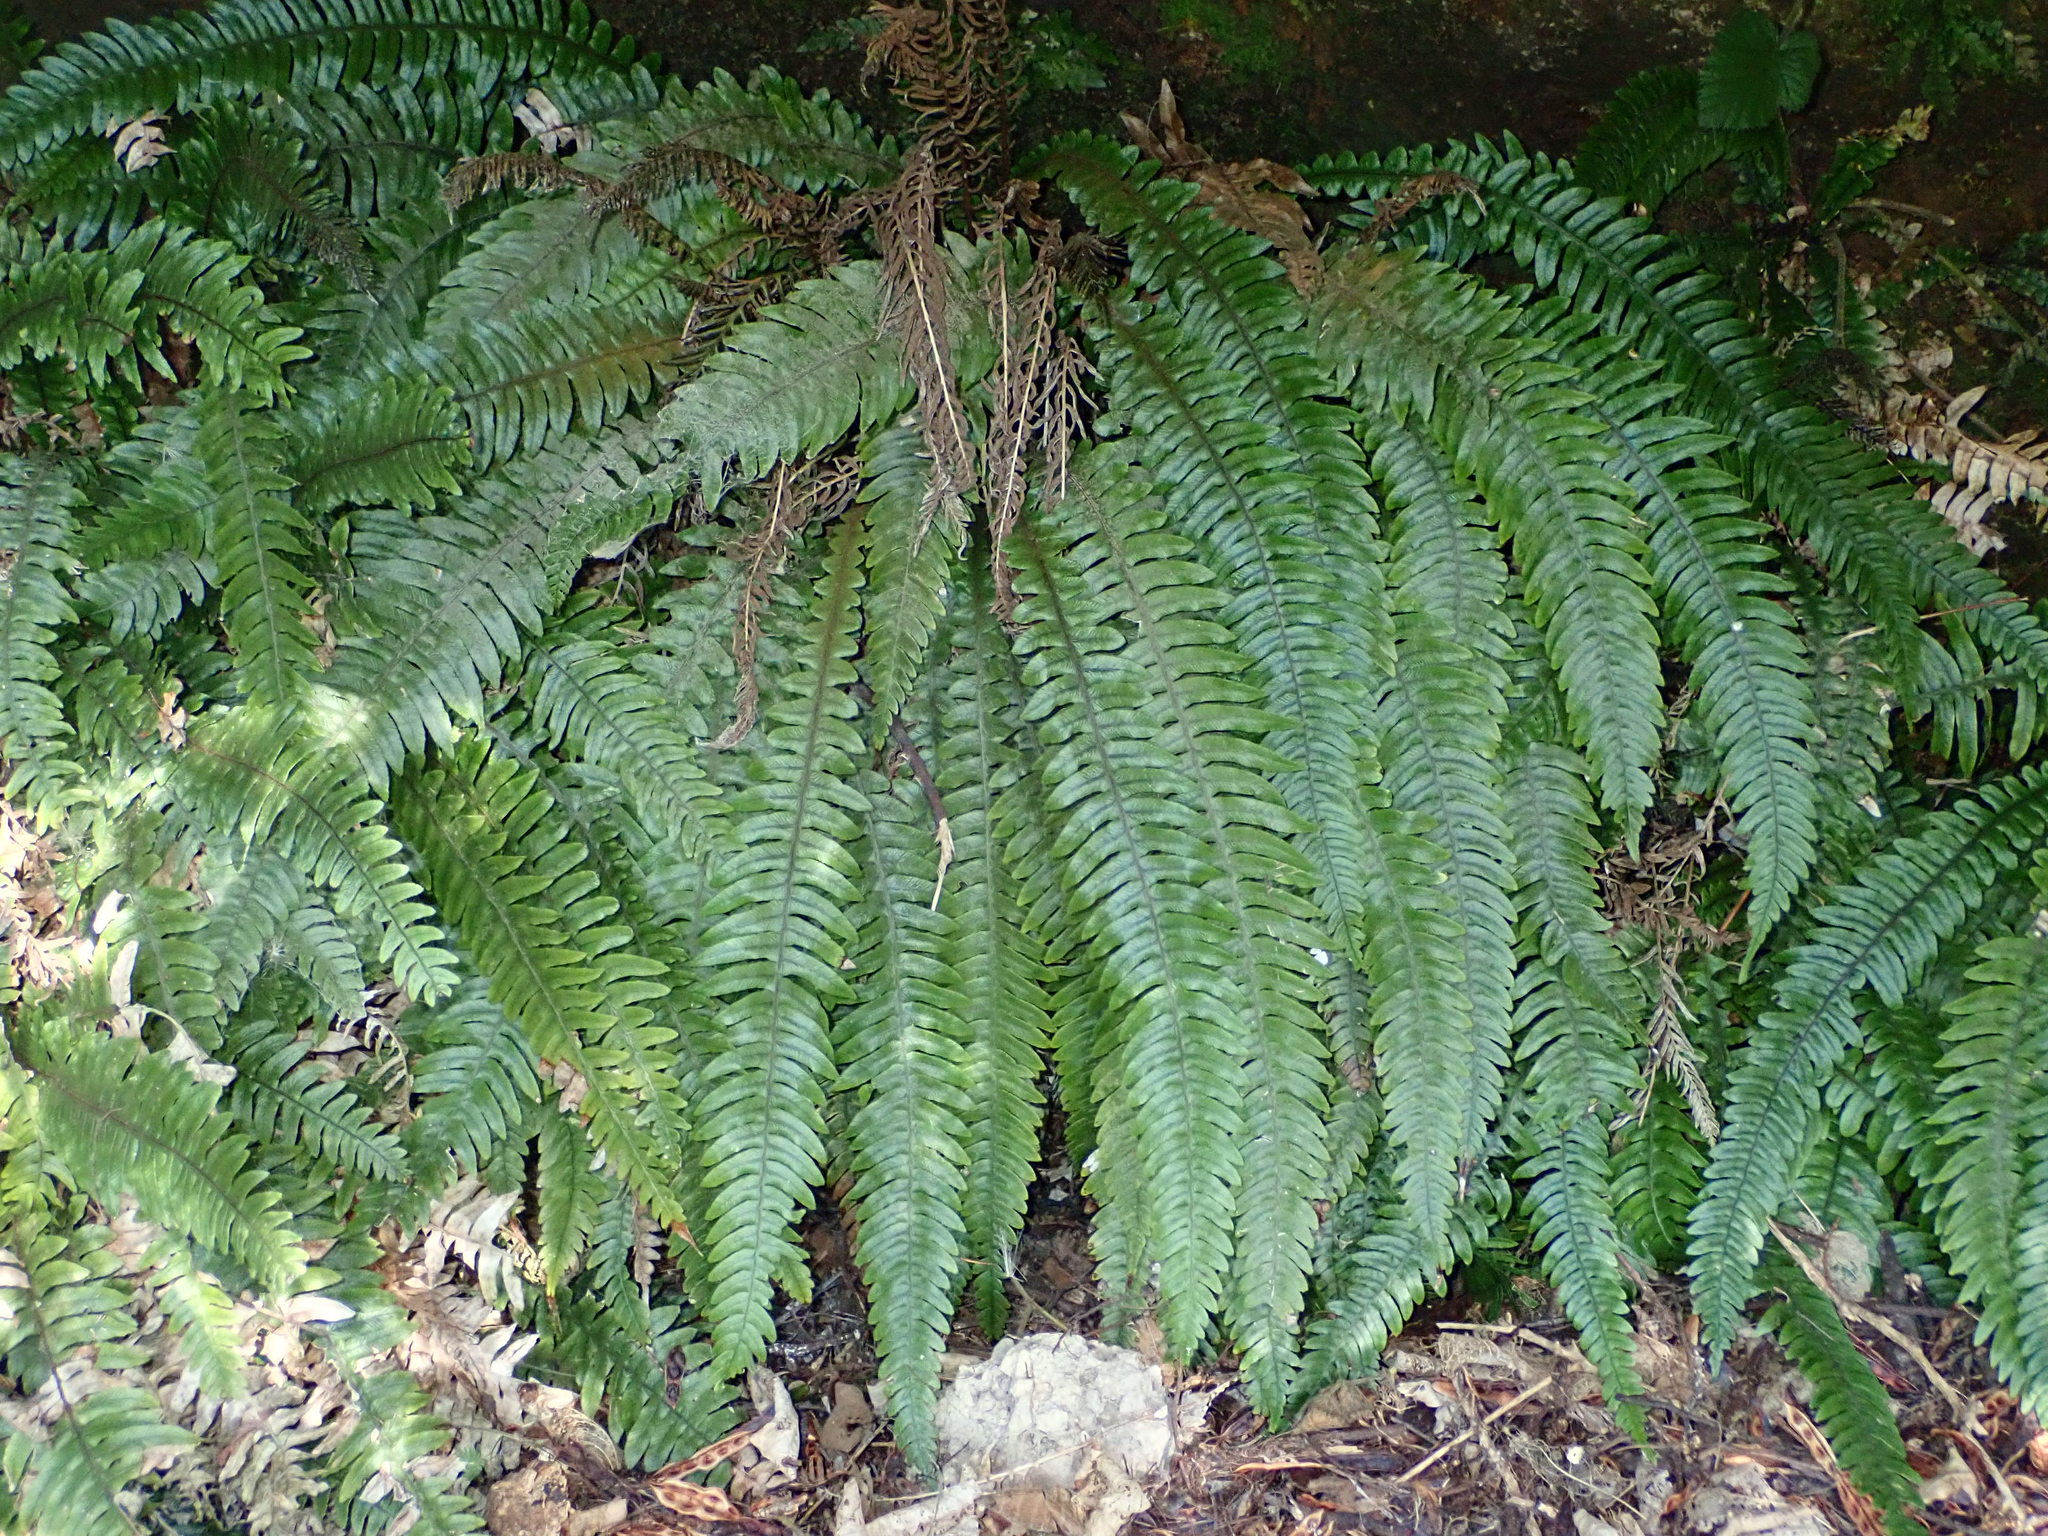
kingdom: Plantae
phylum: Tracheophyta
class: Polypodiopsida
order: Polypodiales
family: Blechnaceae
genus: Austroblechnum
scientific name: Austroblechnum lanceolatum
